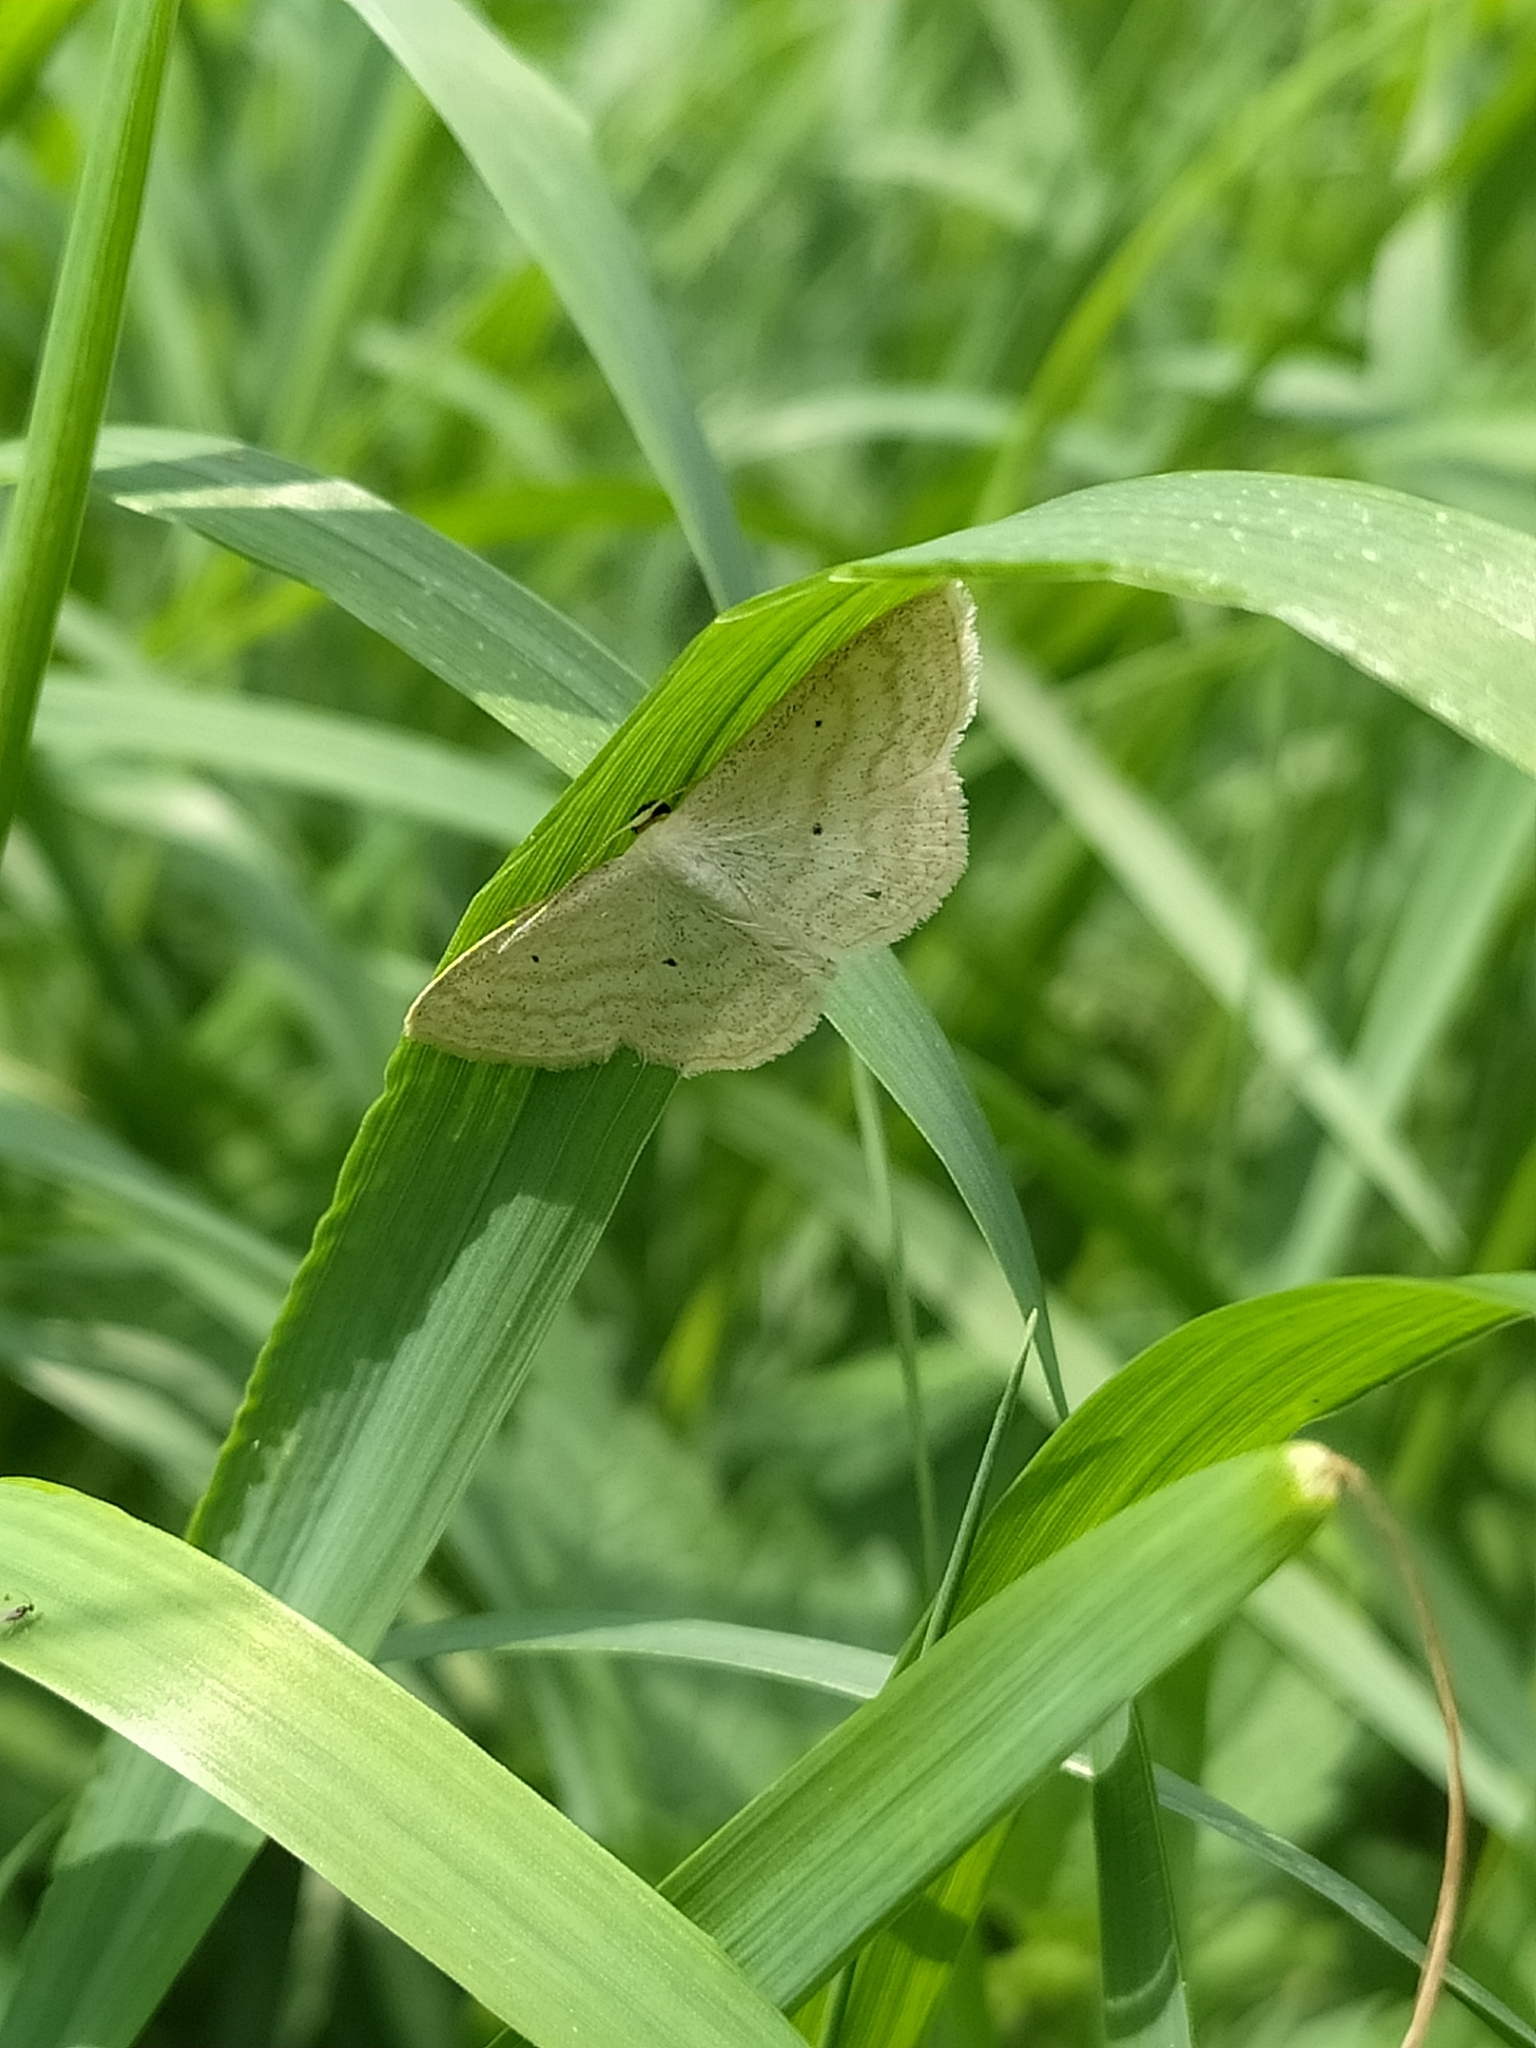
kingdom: Animalia
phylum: Arthropoda
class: Insecta
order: Lepidoptera
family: Geometridae
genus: Scopula
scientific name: Scopula immutata
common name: Lesser cream wave
